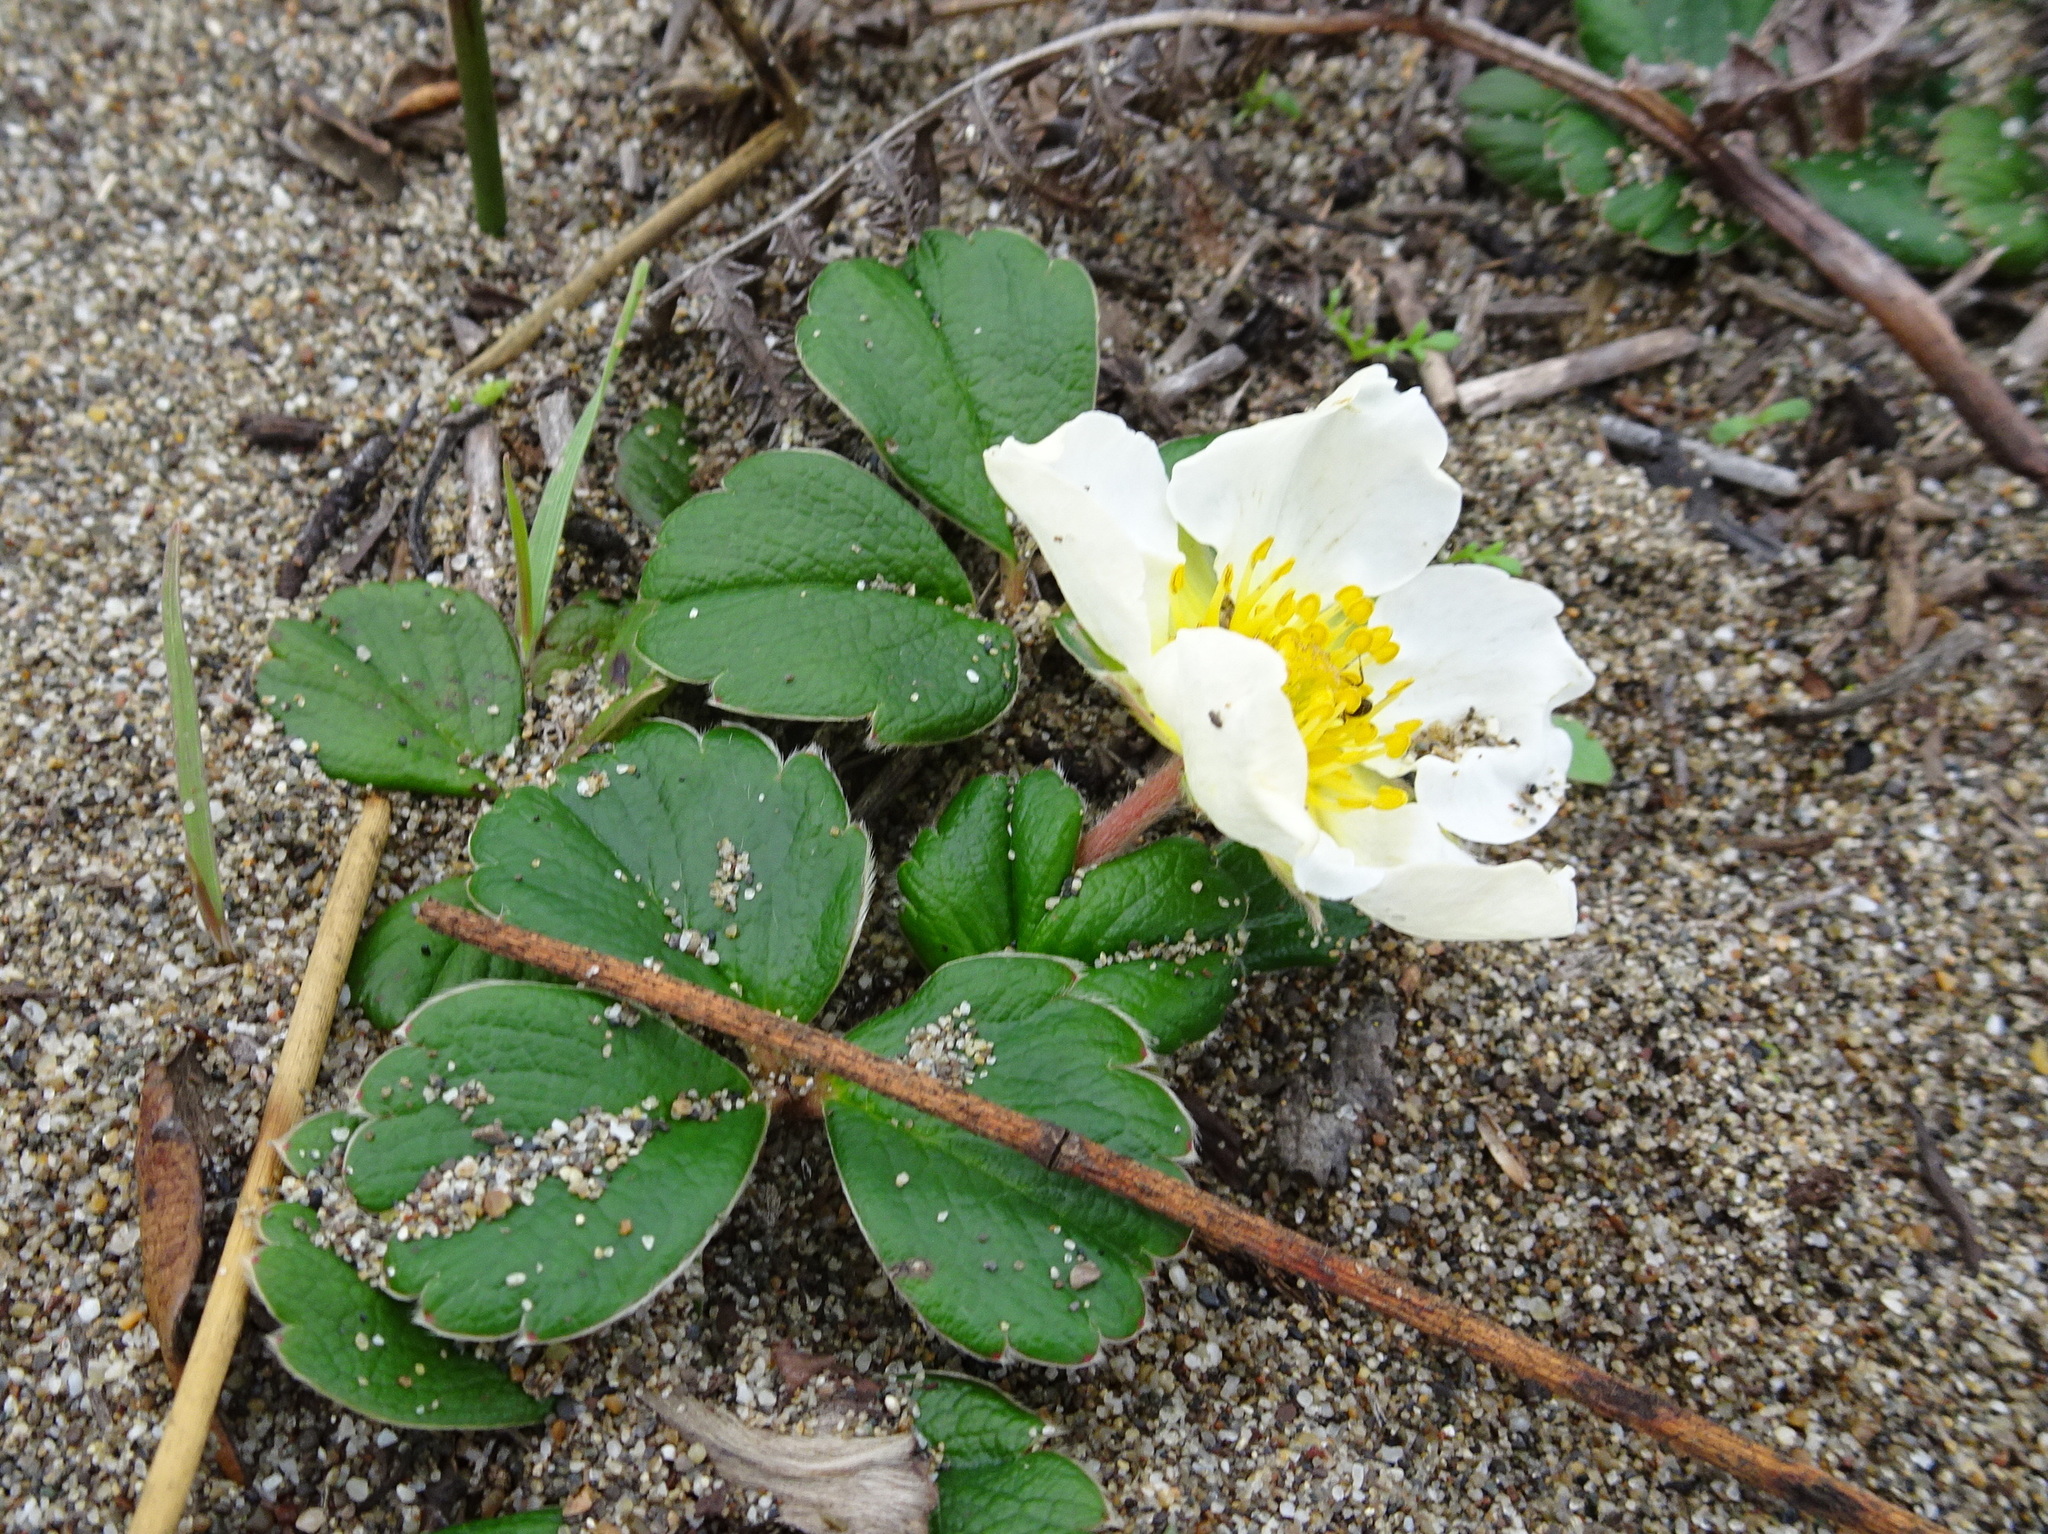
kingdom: Plantae
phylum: Tracheophyta
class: Magnoliopsida
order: Rosales
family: Rosaceae
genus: Fragaria
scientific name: Fragaria chiloensis
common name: Beach strawberry
